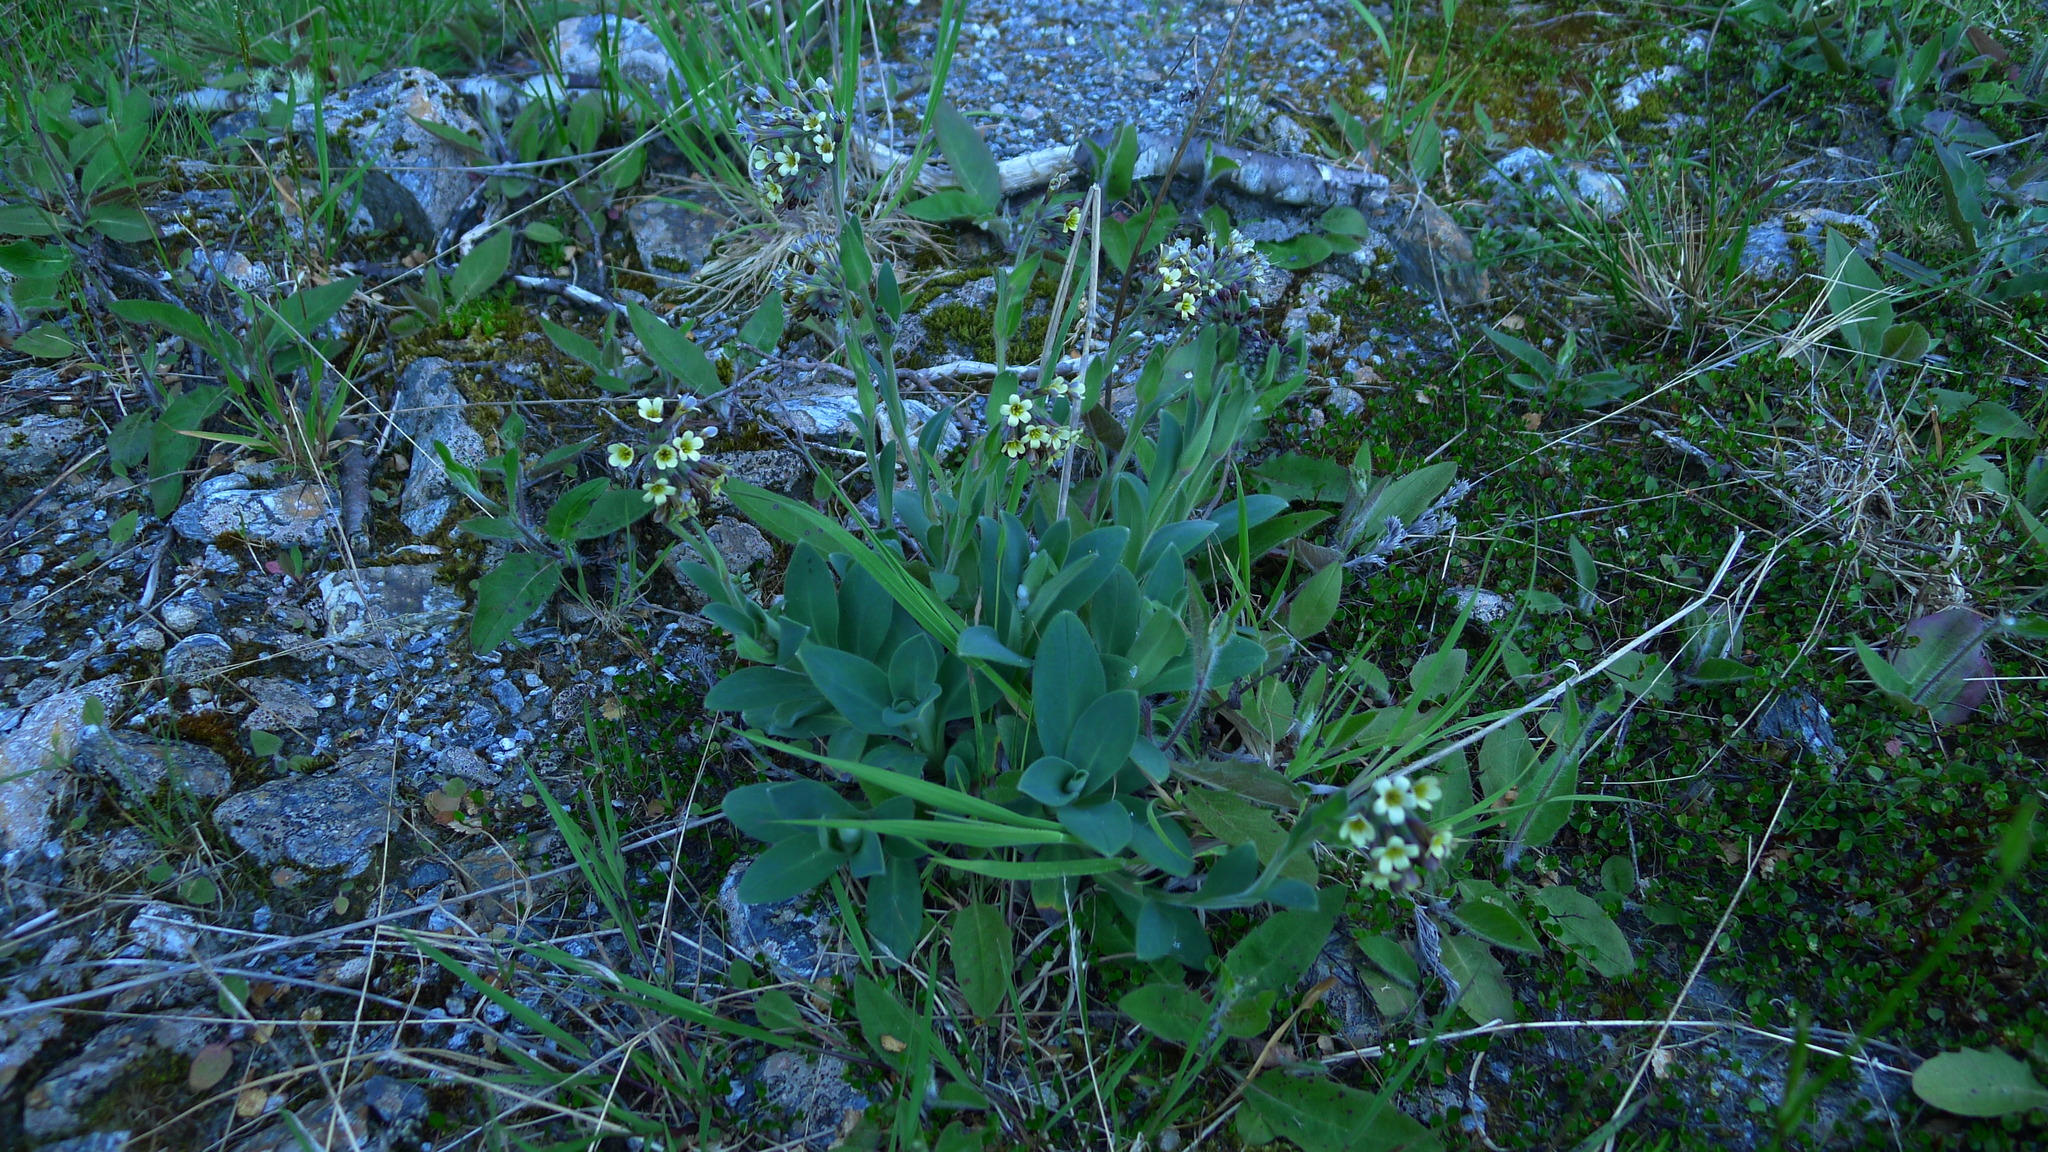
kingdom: Plantae
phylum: Tracheophyta
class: Magnoliopsida
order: Boraginales
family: Boraginaceae
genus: Myosotis
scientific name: Myosotis macrantha
